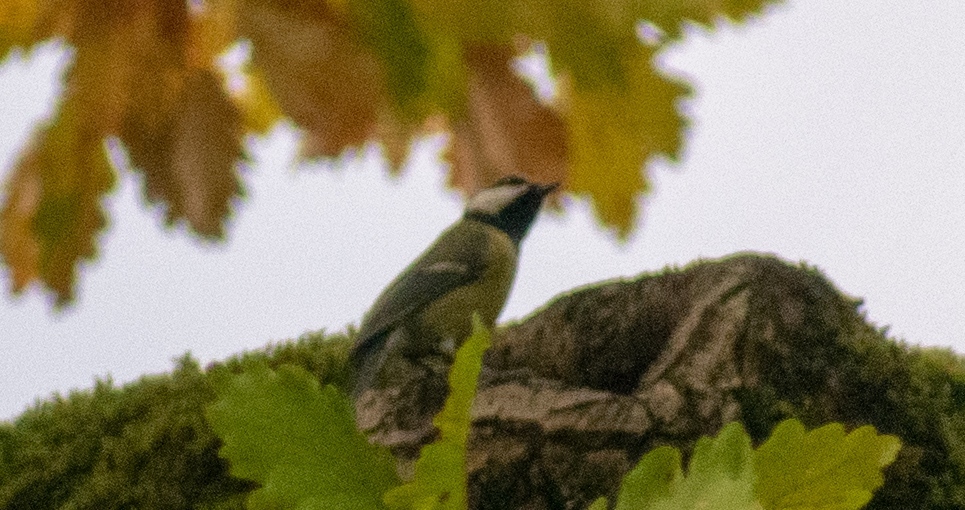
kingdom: Animalia
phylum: Chordata
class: Aves
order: Passeriformes
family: Paridae
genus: Parus
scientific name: Parus major
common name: Great tit
